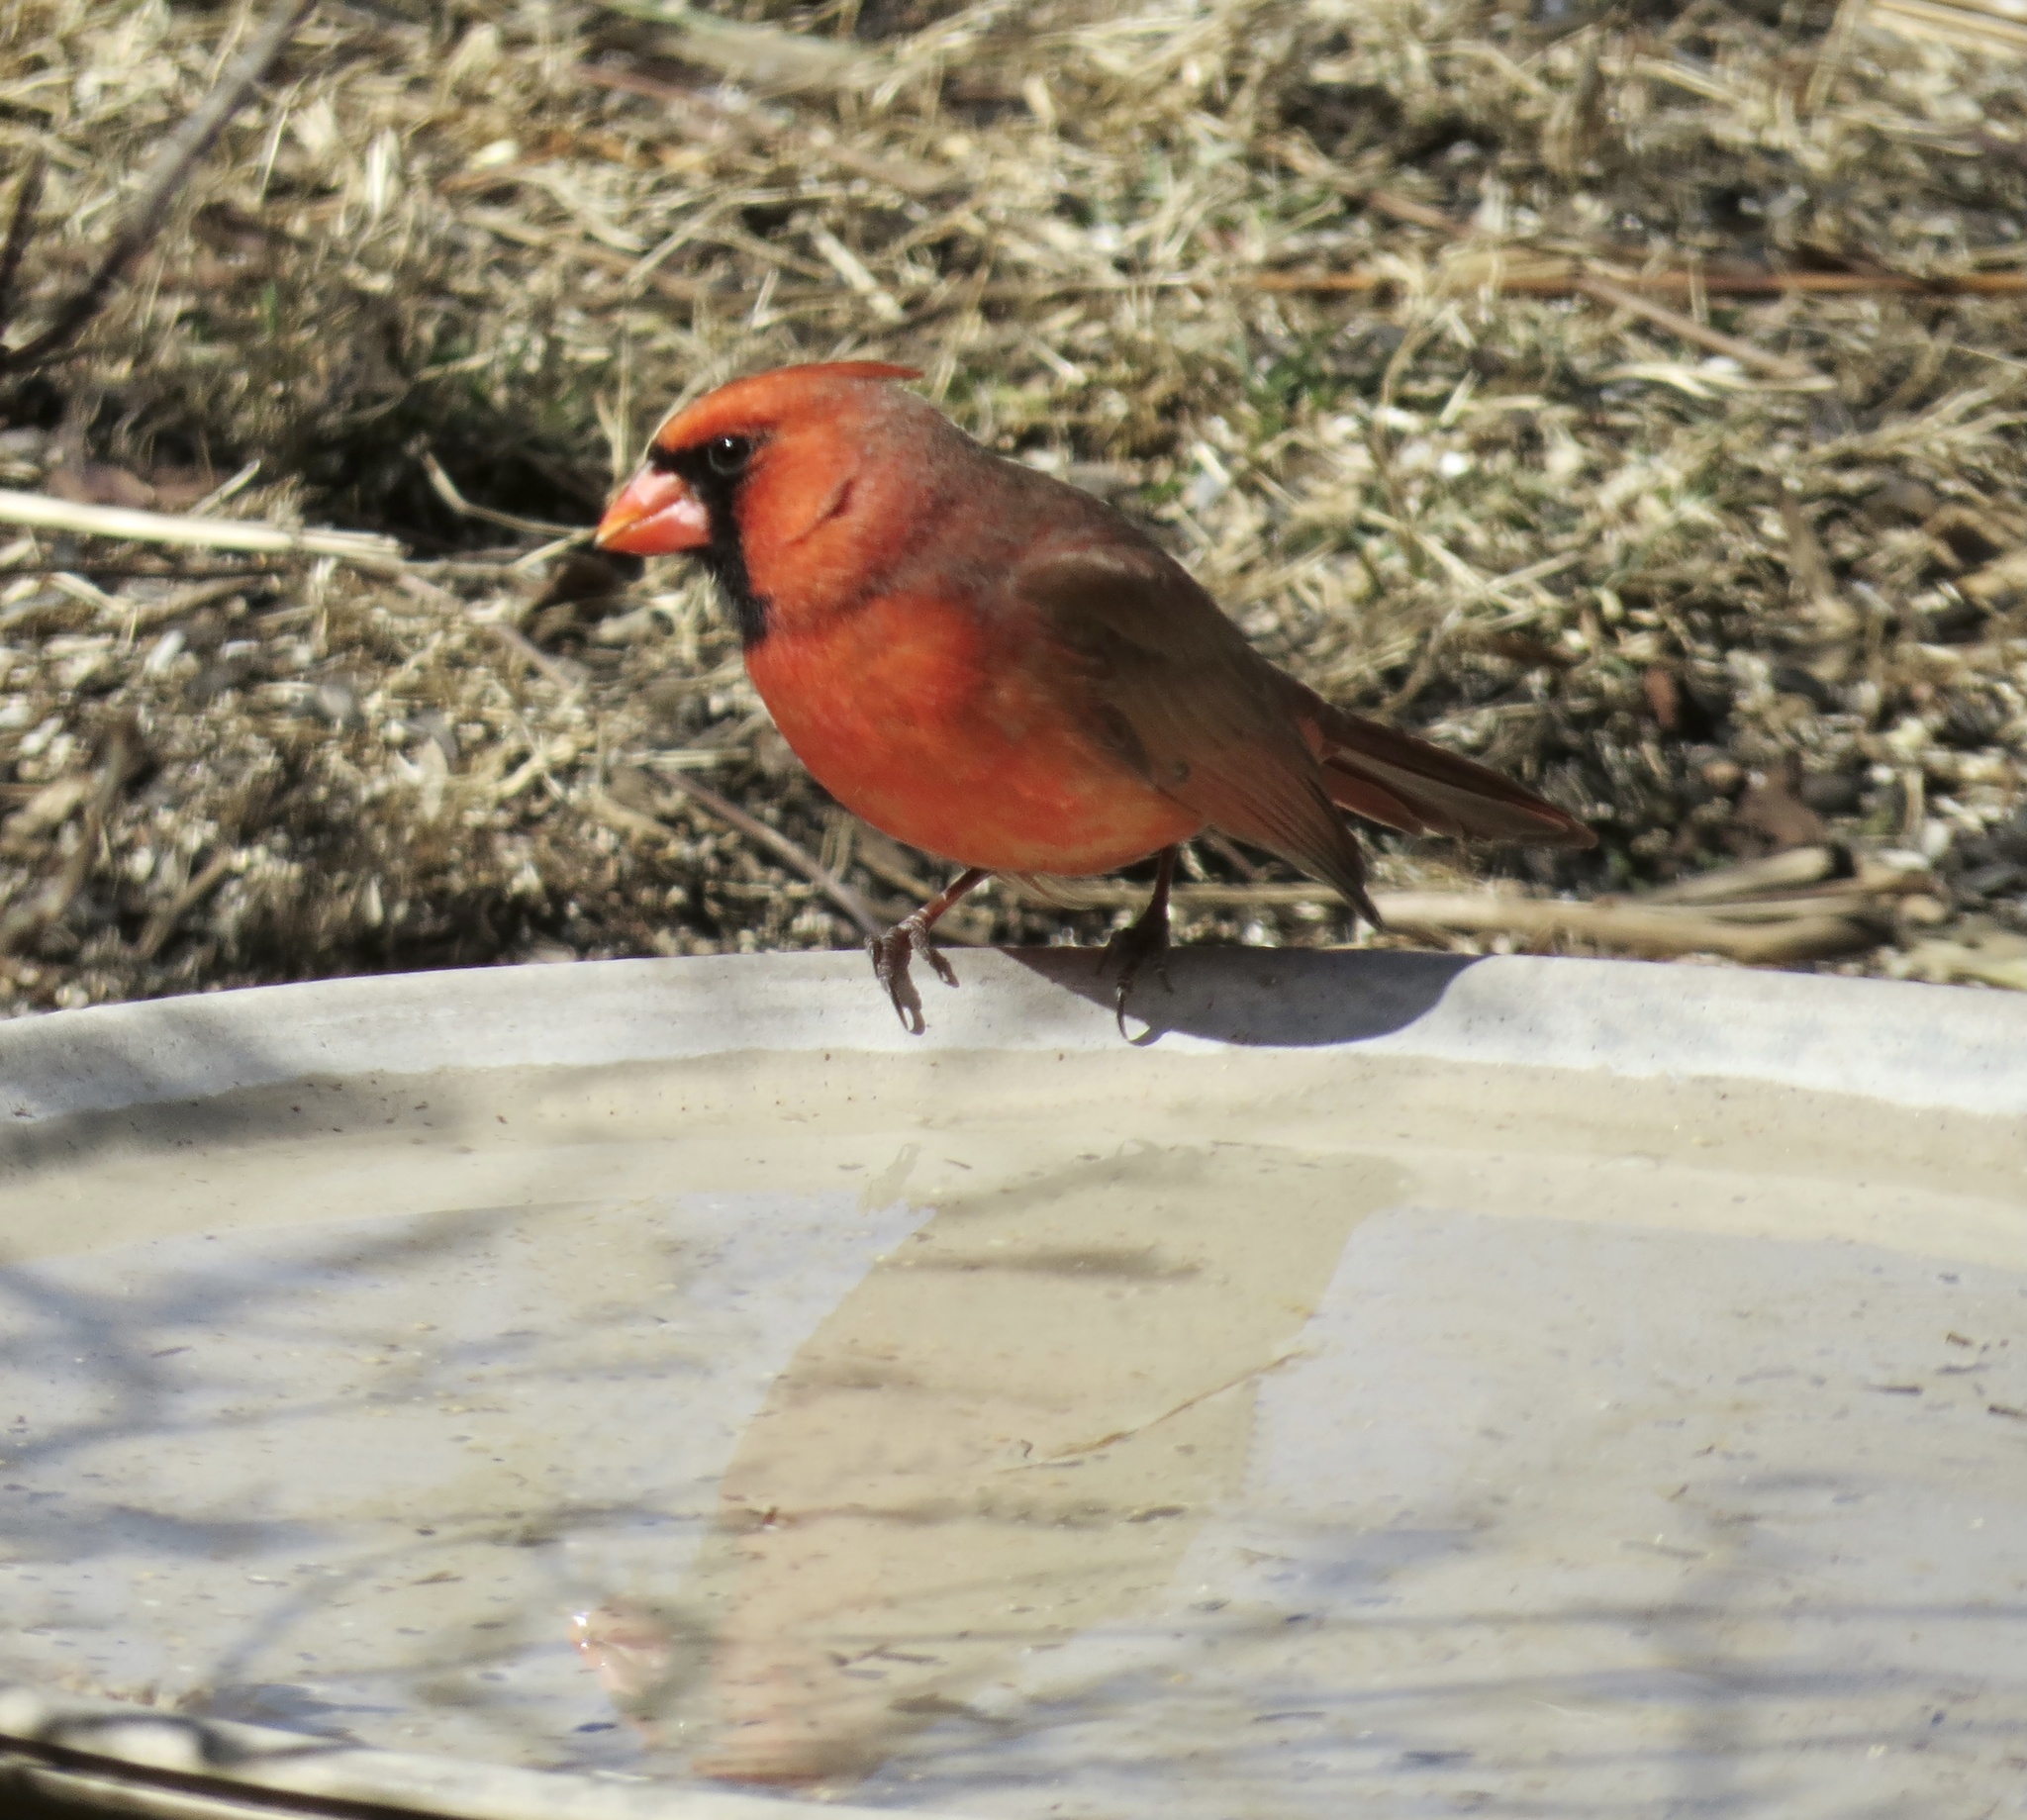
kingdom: Animalia
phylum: Chordata
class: Aves
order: Passeriformes
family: Cardinalidae
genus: Cardinalis
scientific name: Cardinalis cardinalis
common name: Northern cardinal
